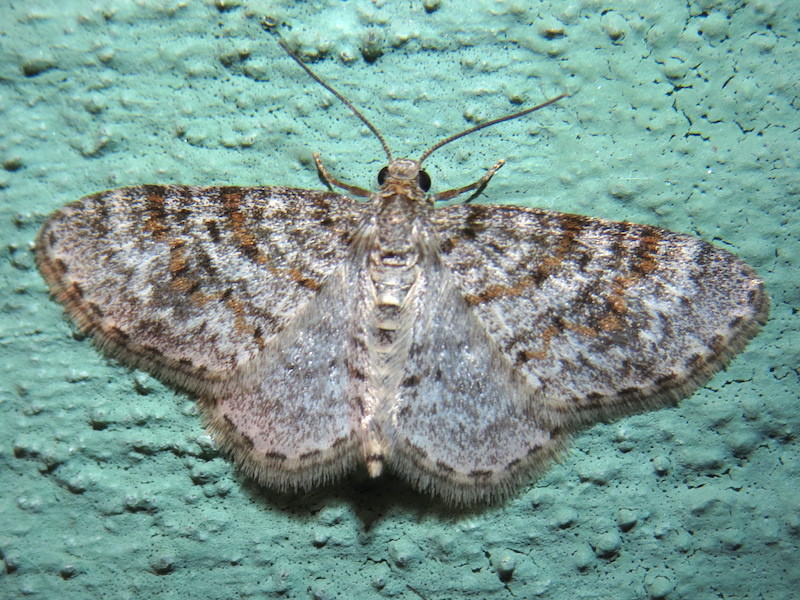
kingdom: Animalia
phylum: Arthropoda
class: Insecta
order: Lepidoptera
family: Geometridae
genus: Hydrelia
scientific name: Hydrelia inornata
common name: Unadorned carpet moth
